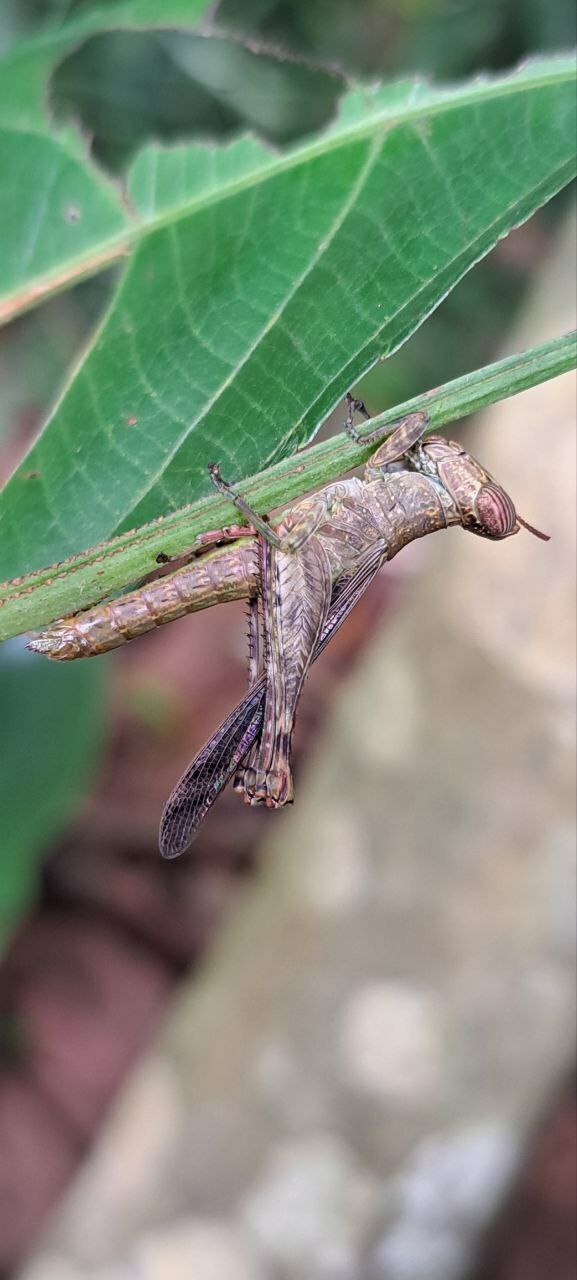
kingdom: Animalia
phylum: Arthropoda
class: Insecta
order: Orthoptera
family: Chorotypidae
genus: Uvarovia
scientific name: Uvarovia longipennis
